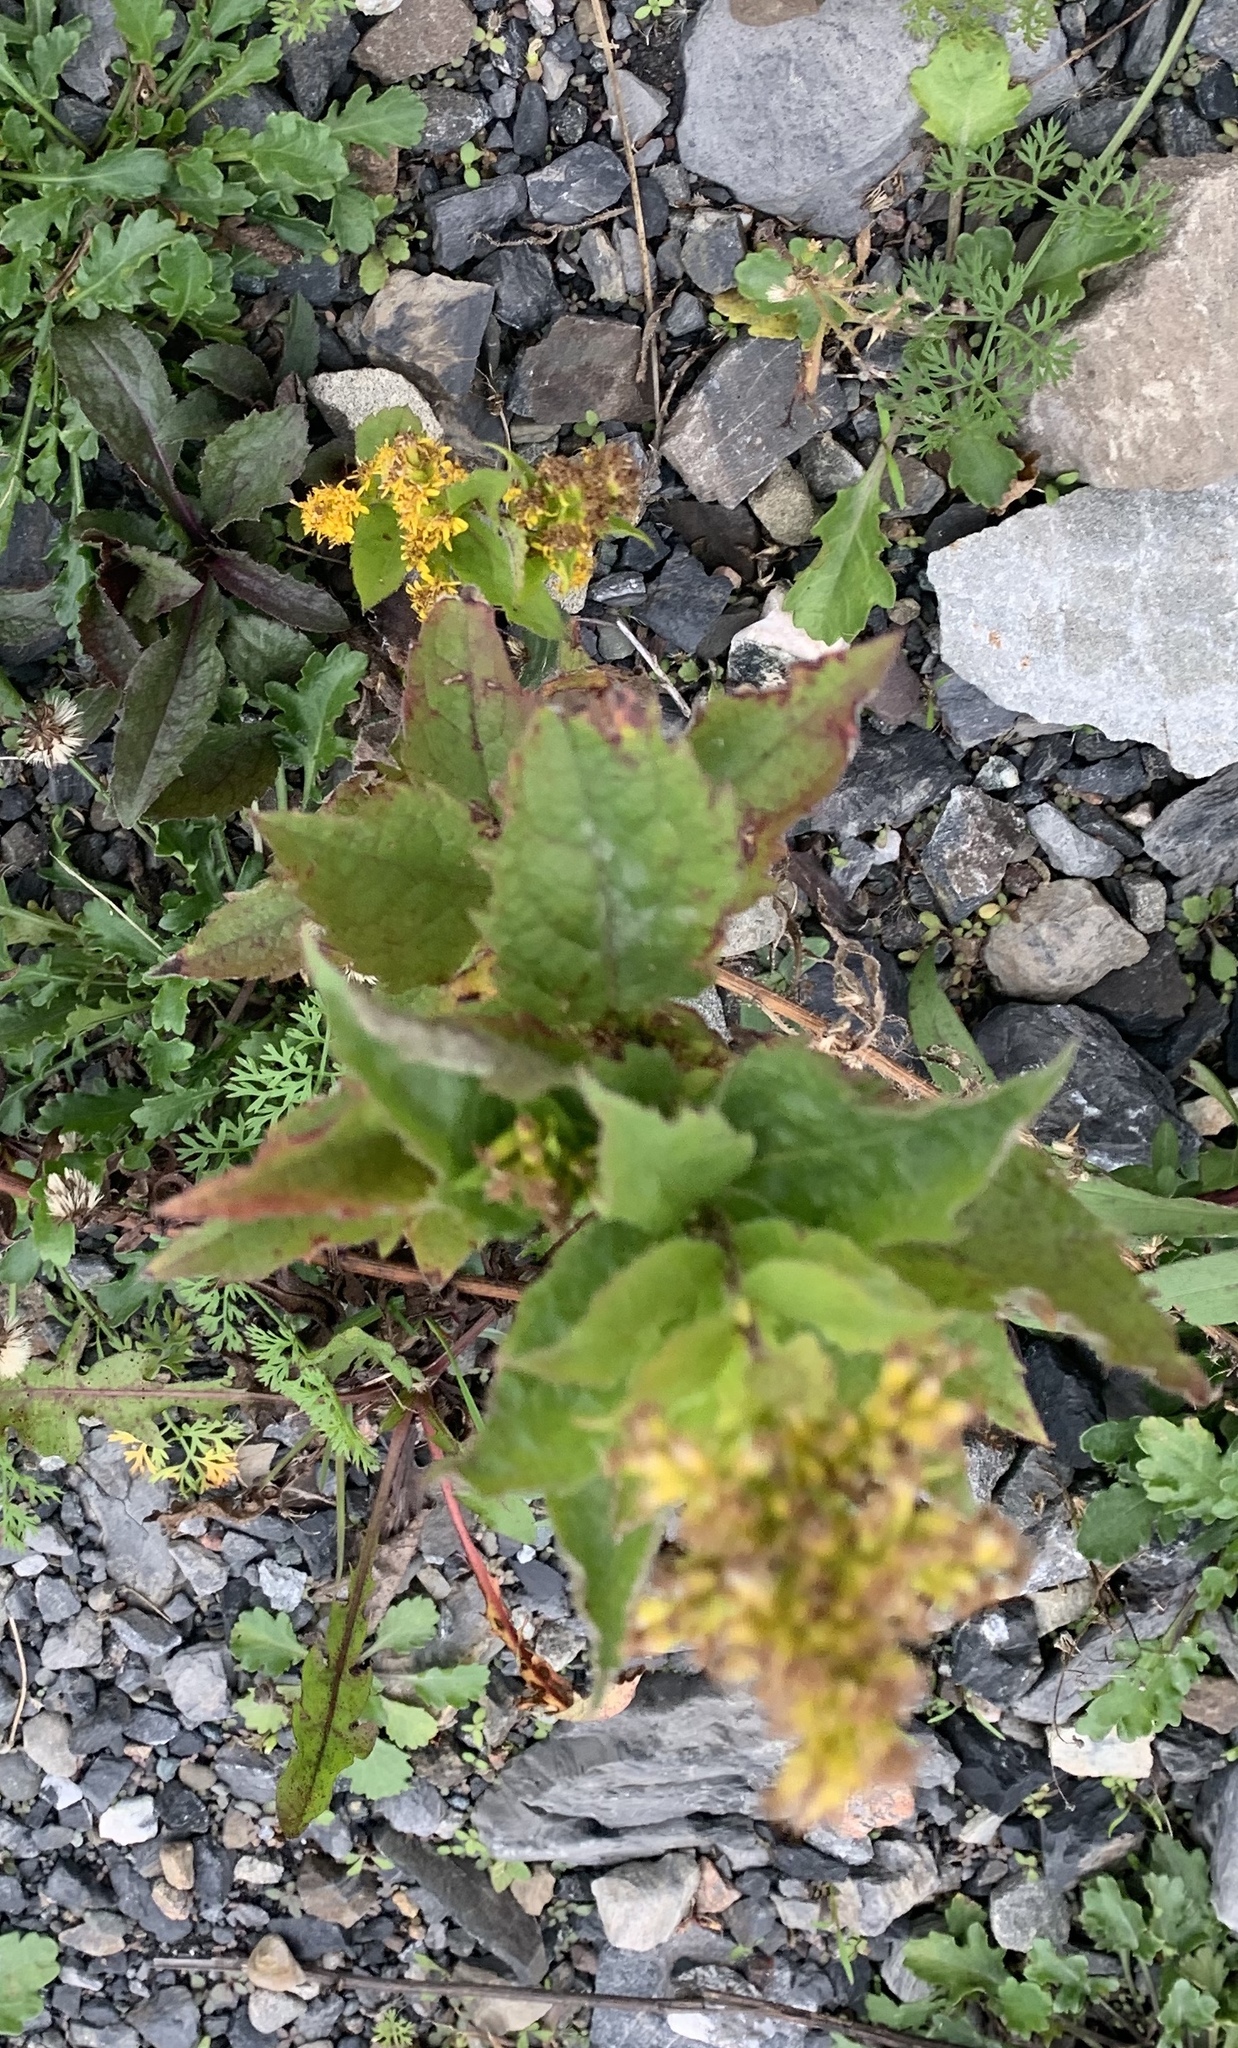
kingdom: Plantae
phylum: Tracheophyta
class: Magnoliopsida
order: Asterales
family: Asteraceae
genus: Solidago
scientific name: Solidago rugosa
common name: Rough-stemmed goldenrod
